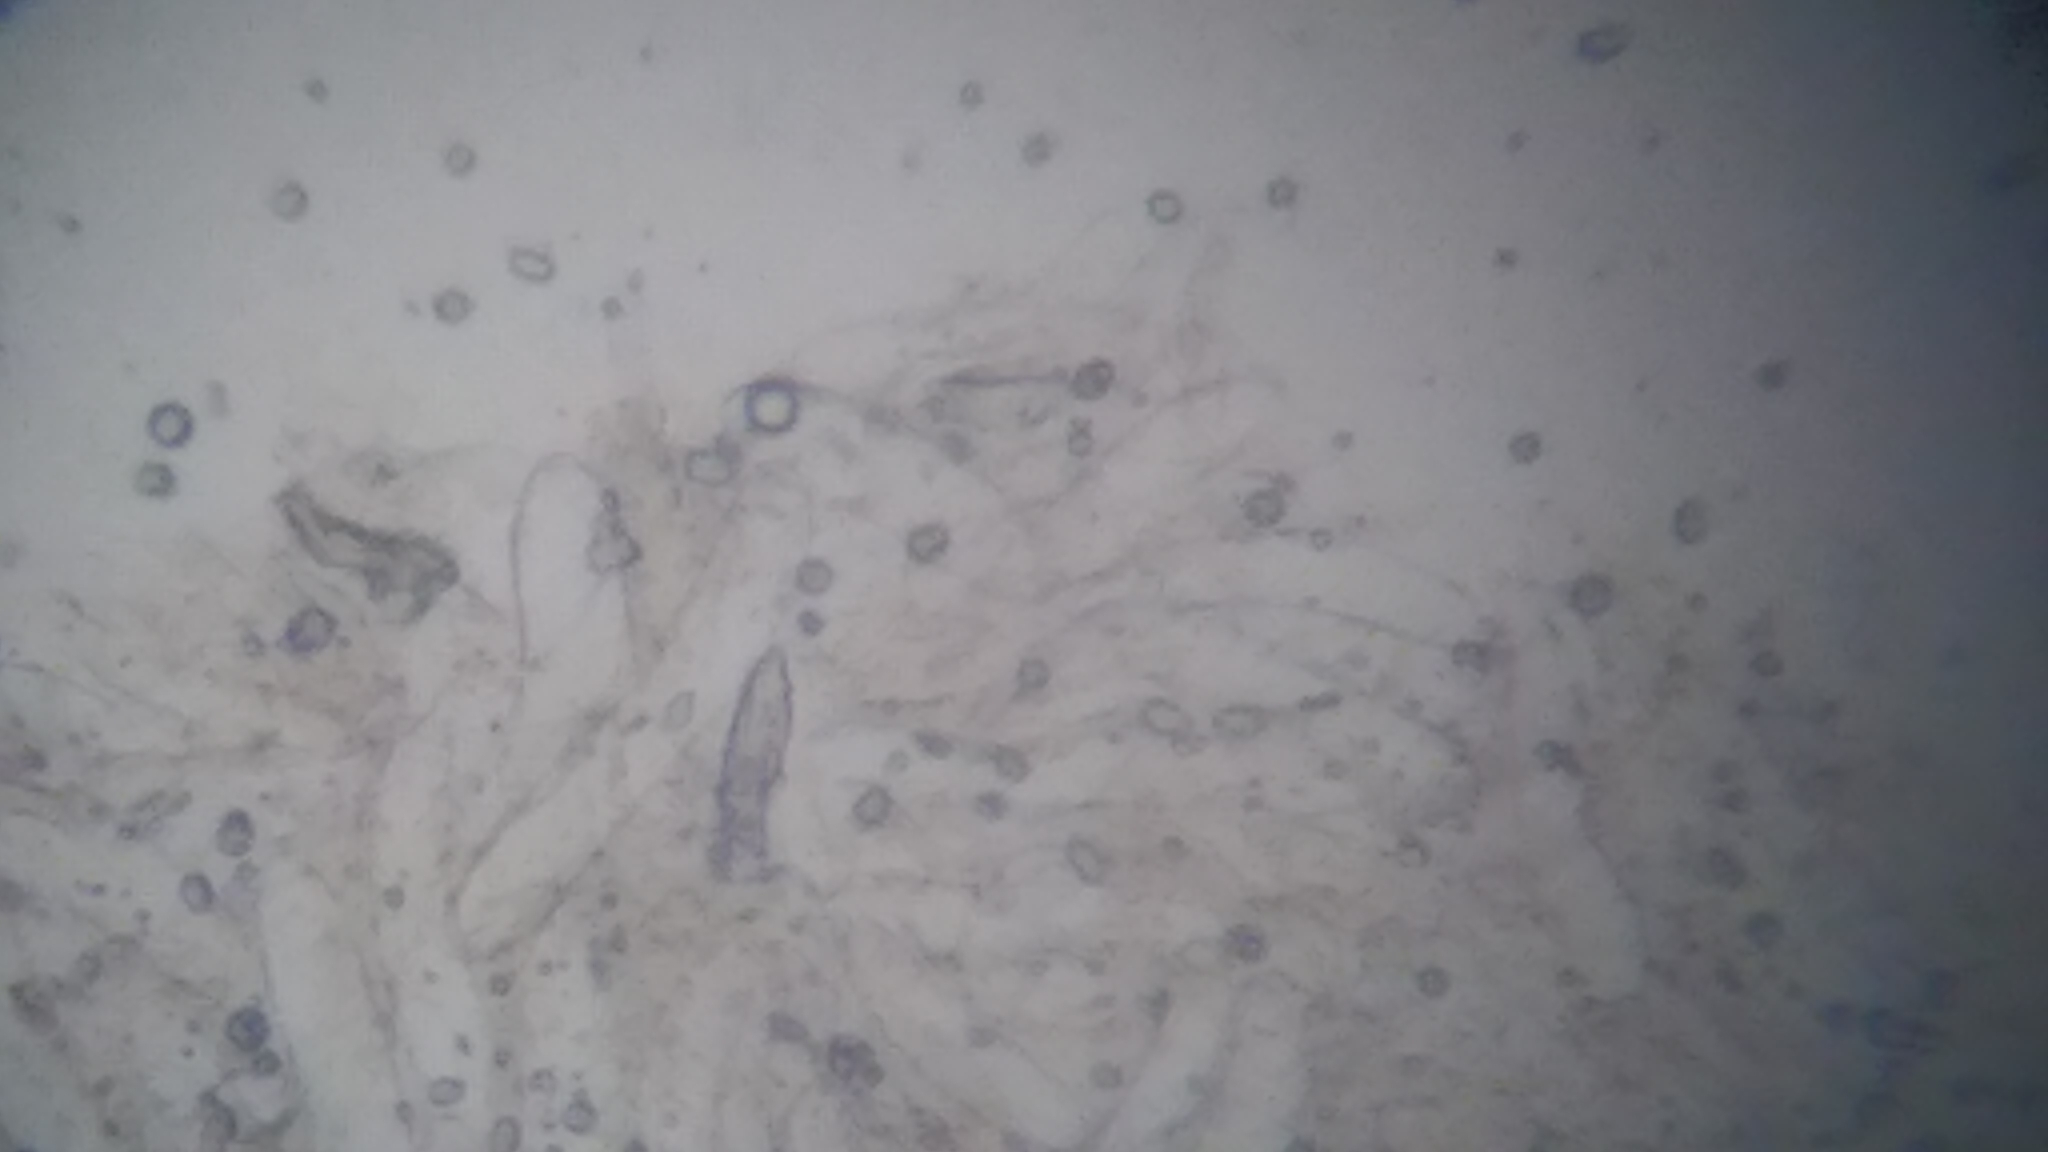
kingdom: Fungi
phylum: Basidiomycota
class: Agaricomycetes
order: Agaricales
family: Hygrophoraceae
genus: Humidicutis
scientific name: Humidicutis auratocephala
